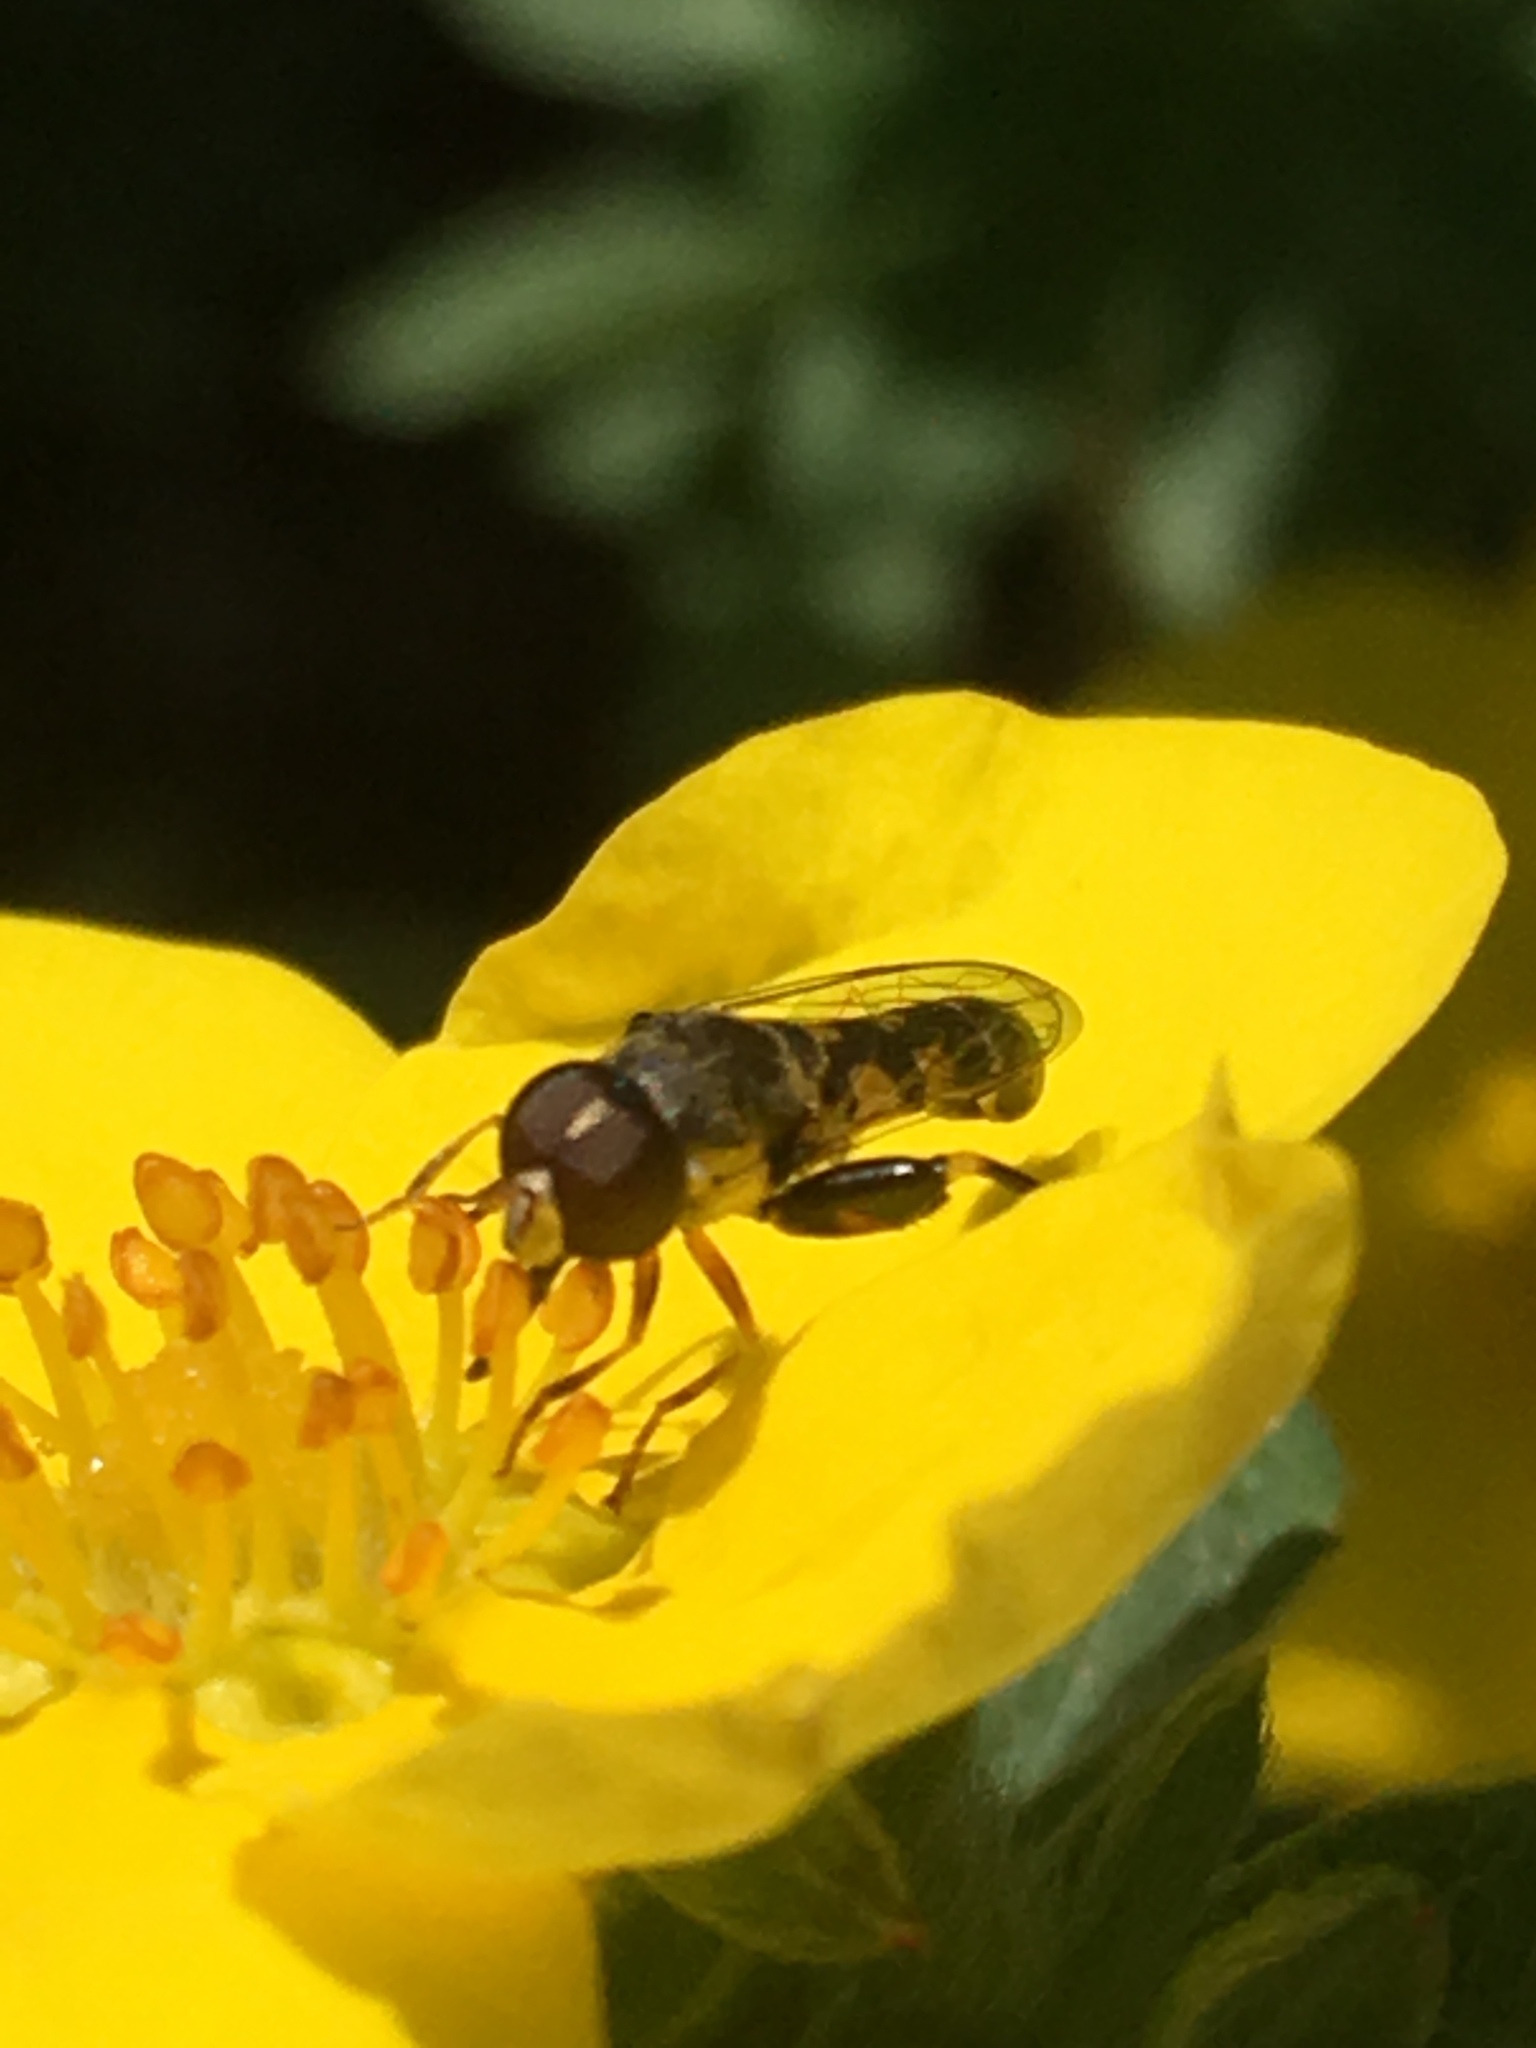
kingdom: Animalia
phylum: Arthropoda
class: Insecta
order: Diptera
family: Syrphidae
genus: Syritta
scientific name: Syritta pipiens
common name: Hover fly
